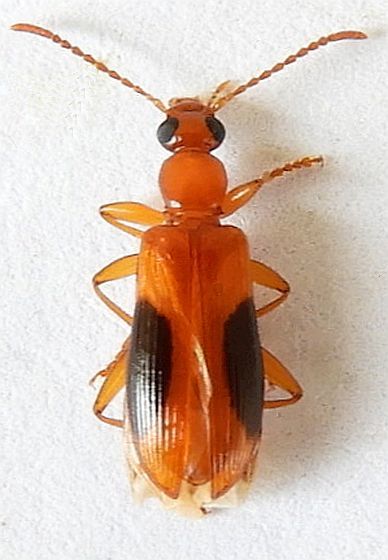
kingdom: Animalia
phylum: Arthropoda
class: Insecta
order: Coleoptera
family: Tenebrionidae
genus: Statira
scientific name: Statira nigromaculata
